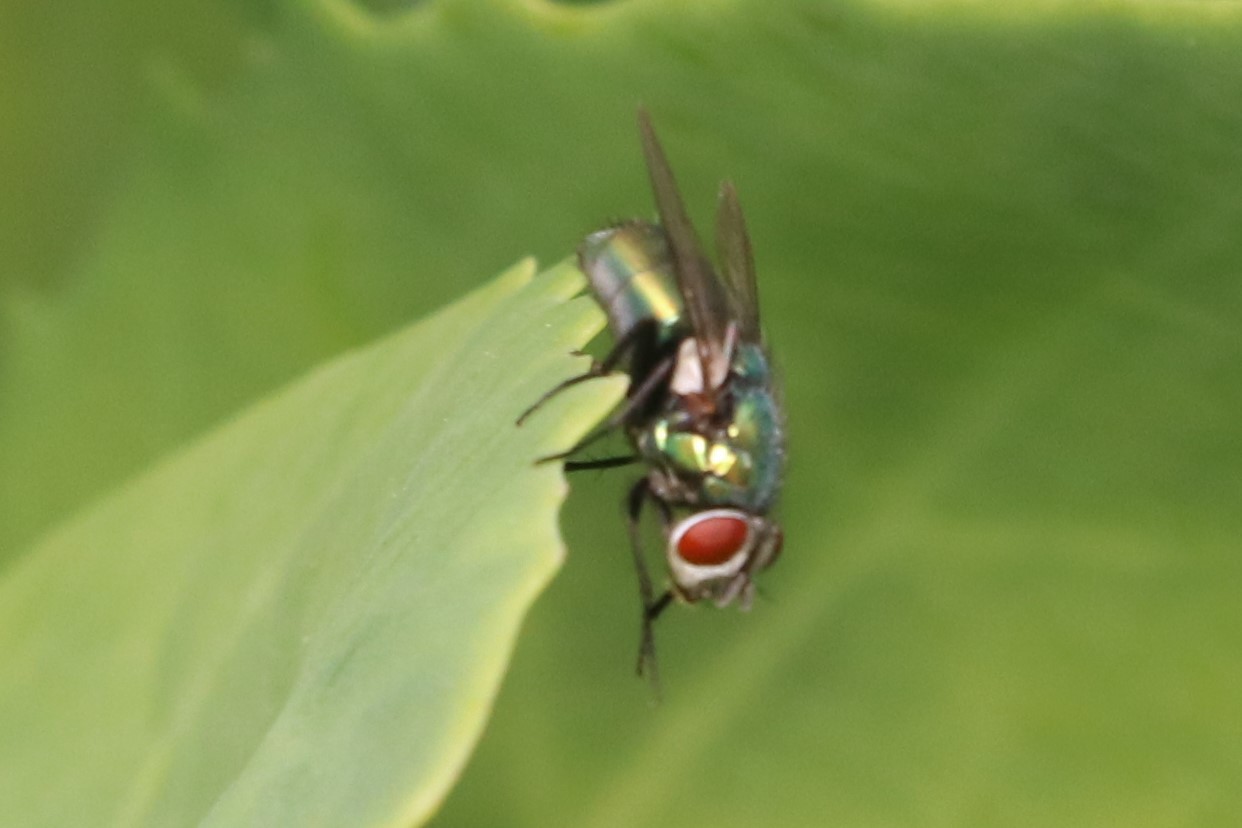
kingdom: Animalia
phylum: Arthropoda
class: Insecta
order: Diptera
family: Calliphoridae
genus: Lucilia
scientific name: Lucilia sericata
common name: Blow fly
